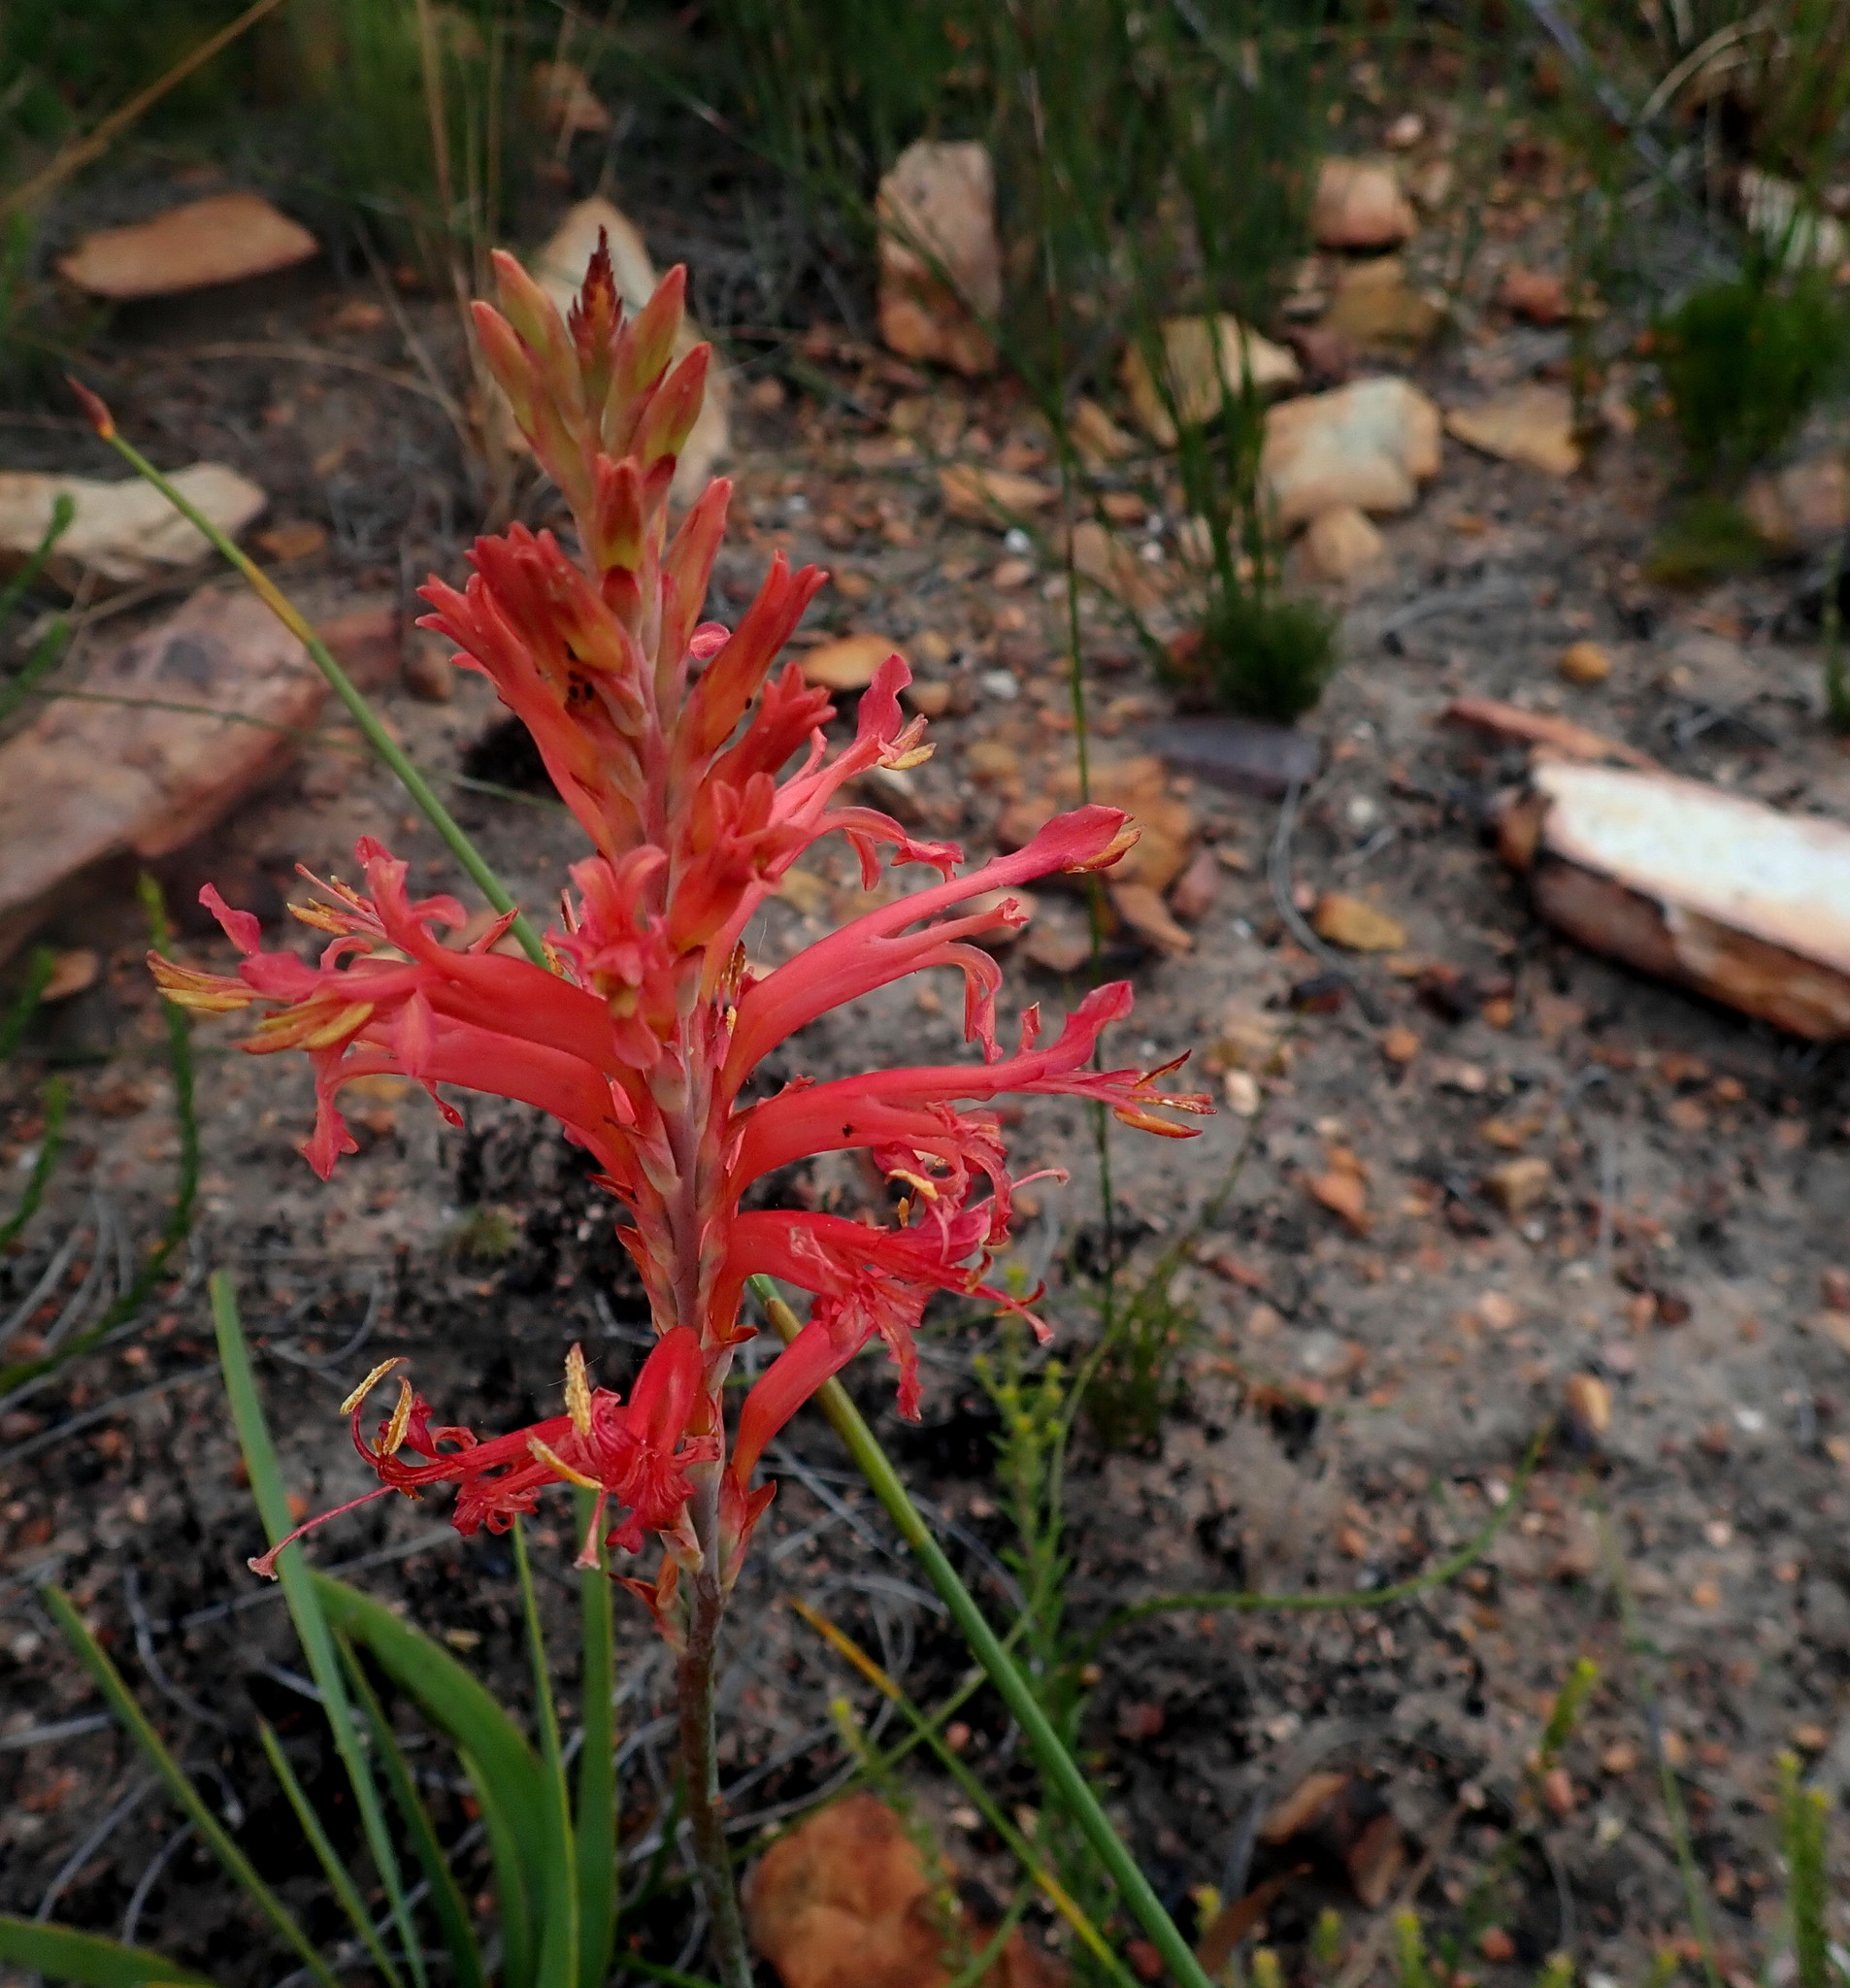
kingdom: Plantae
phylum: Tracheophyta
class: Liliopsida
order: Asparagales
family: Iridaceae
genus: Tritoniopsis
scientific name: Tritoniopsis antholyza
